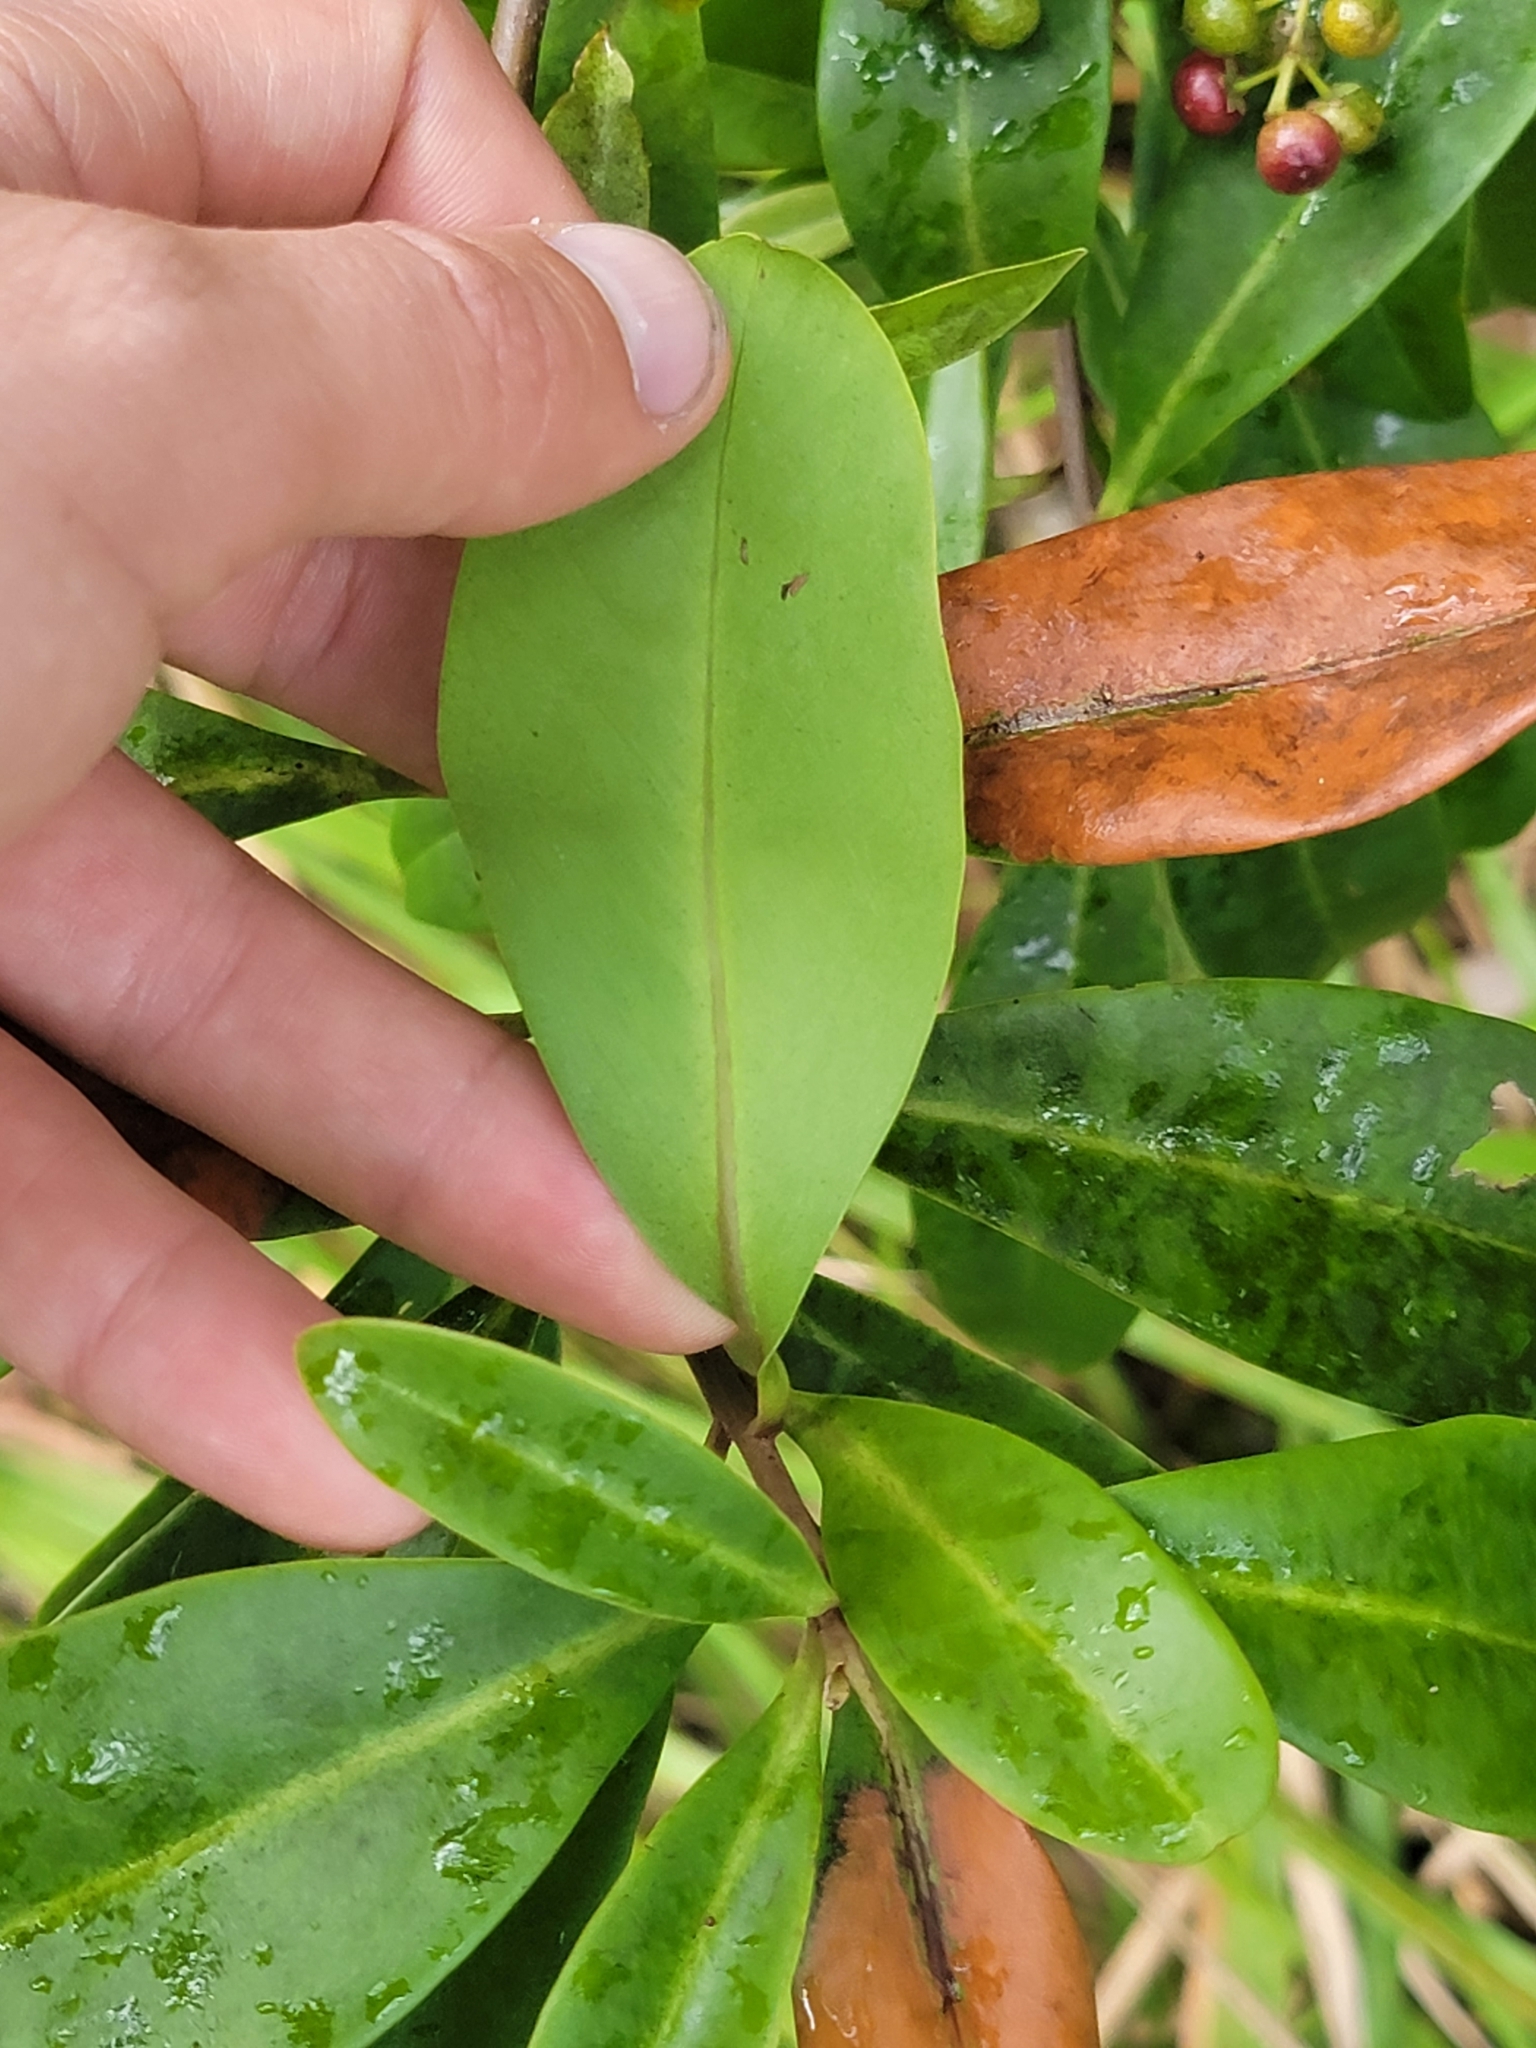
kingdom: Plantae
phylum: Tracheophyta
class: Magnoliopsida
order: Ericales
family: Primulaceae
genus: Ardisia
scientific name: Ardisia escallonioides
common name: Island marlberry
